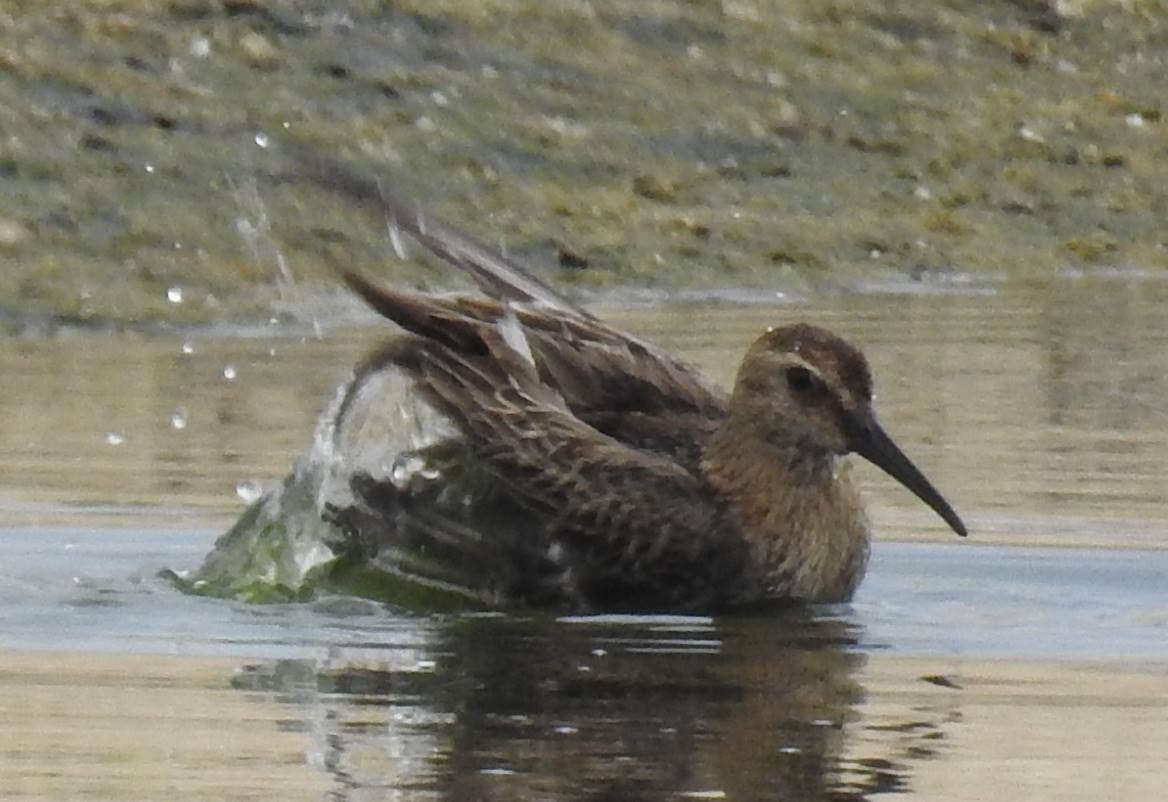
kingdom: Animalia
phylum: Chordata
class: Aves
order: Charadriiformes
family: Scolopacidae
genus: Calidris
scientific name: Calidris alpina
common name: Dunlin
